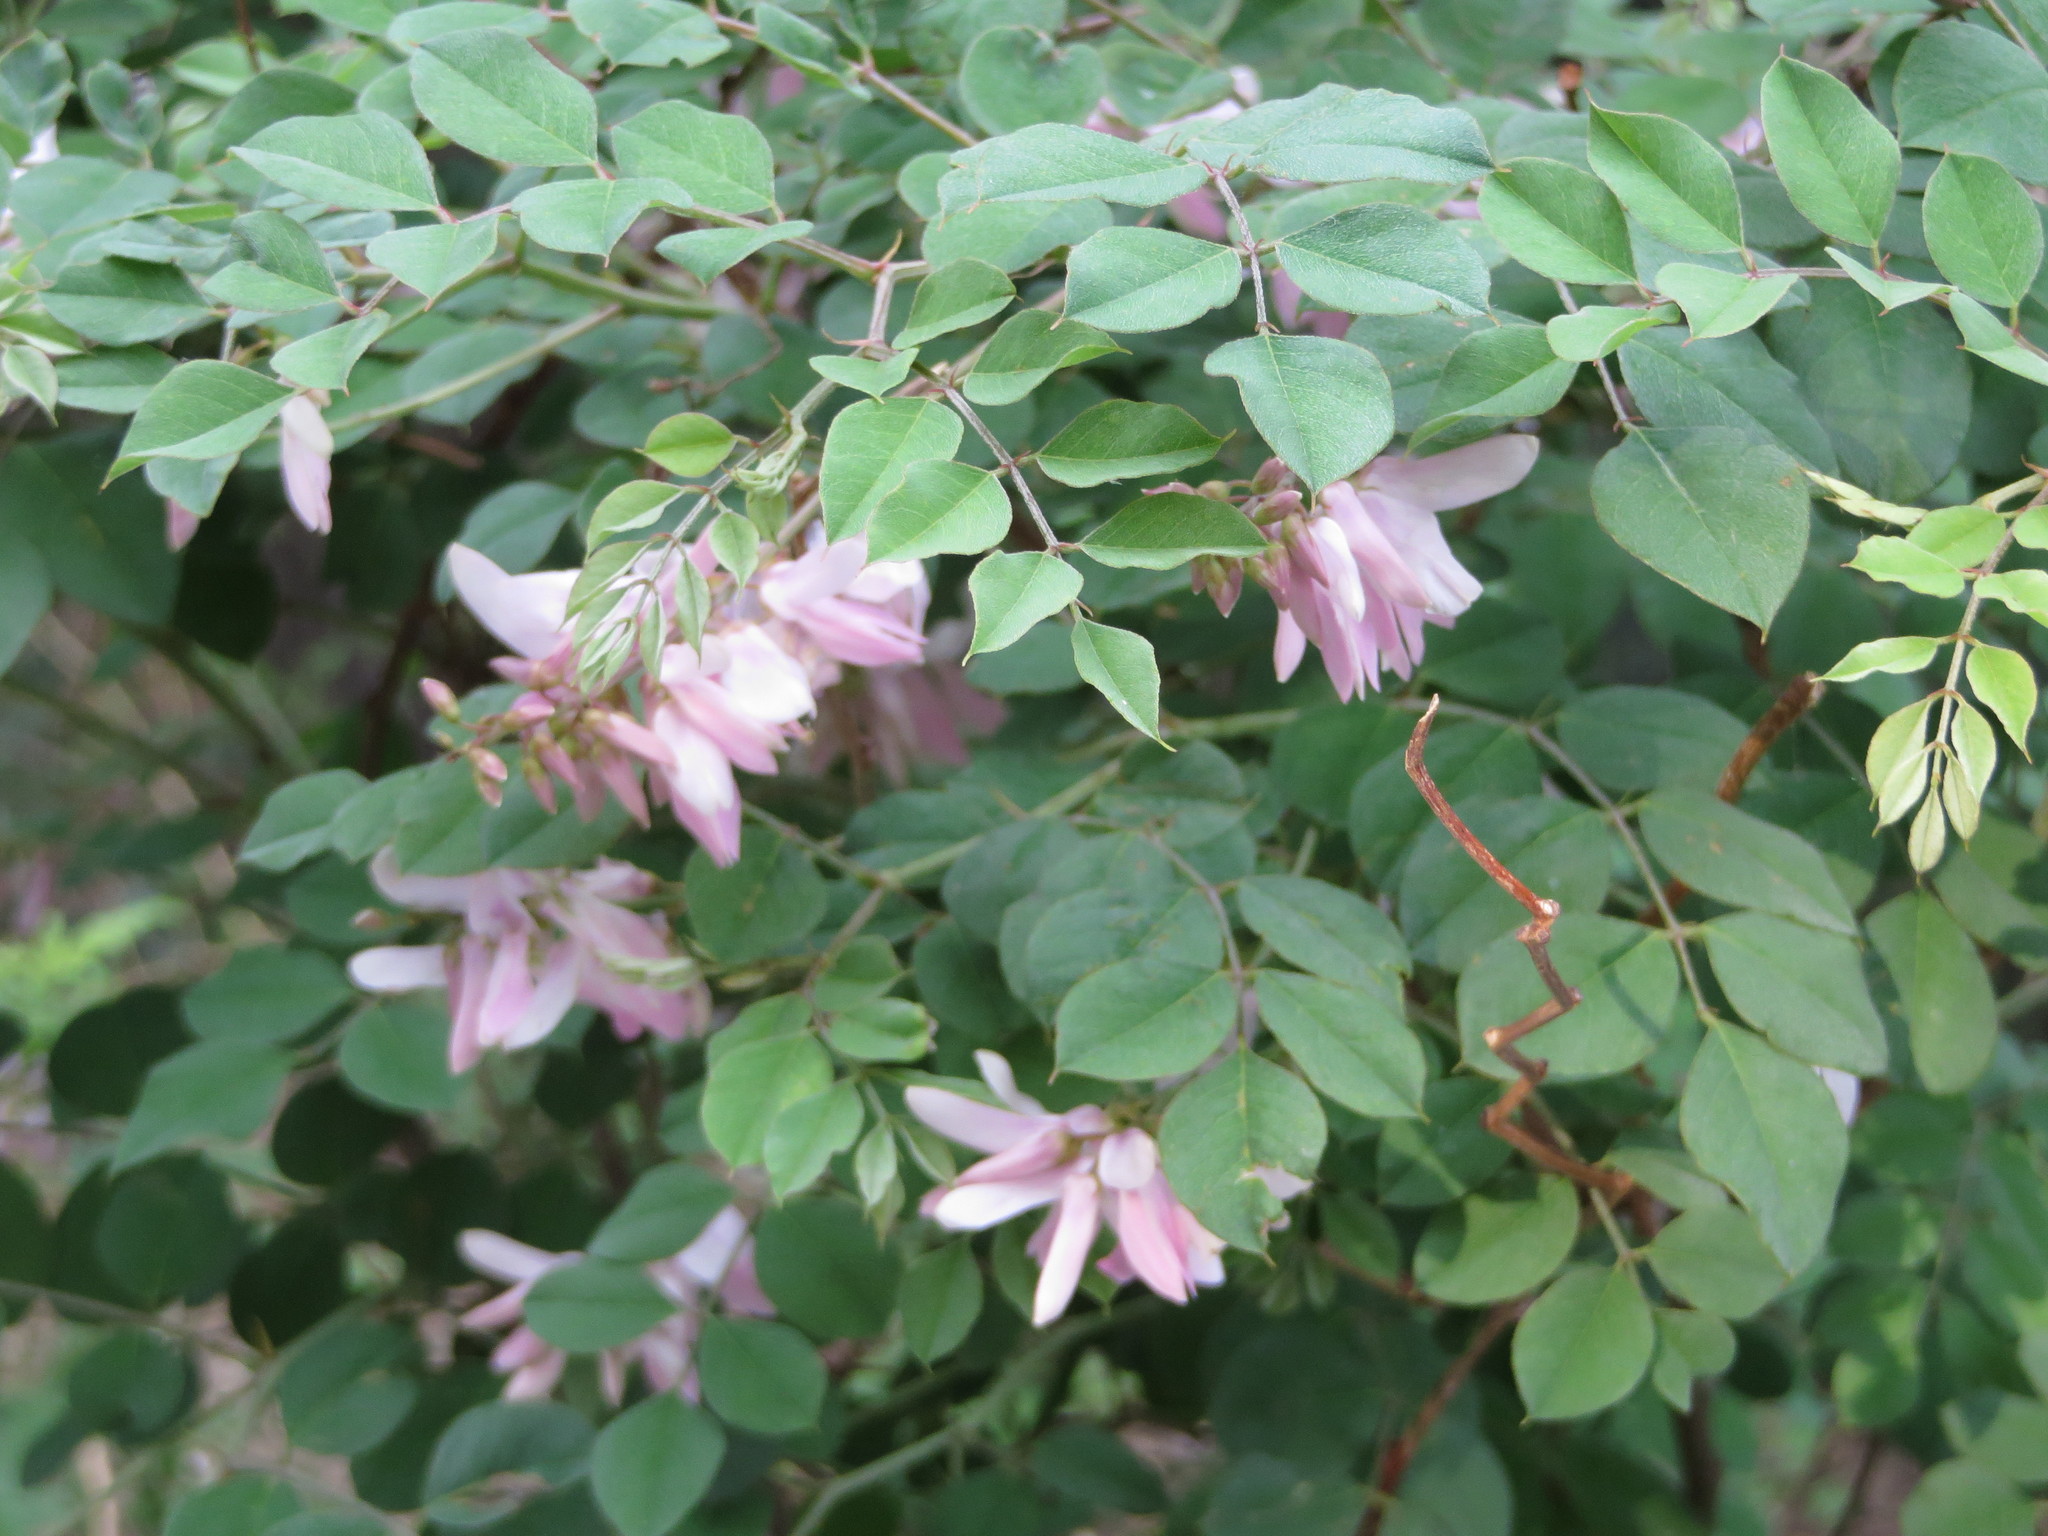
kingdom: Plantae
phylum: Tracheophyta
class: Magnoliopsida
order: Fabales
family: Fabaceae
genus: Indigofera
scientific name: Indigofera kirilowii
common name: Kirilow's indigo
